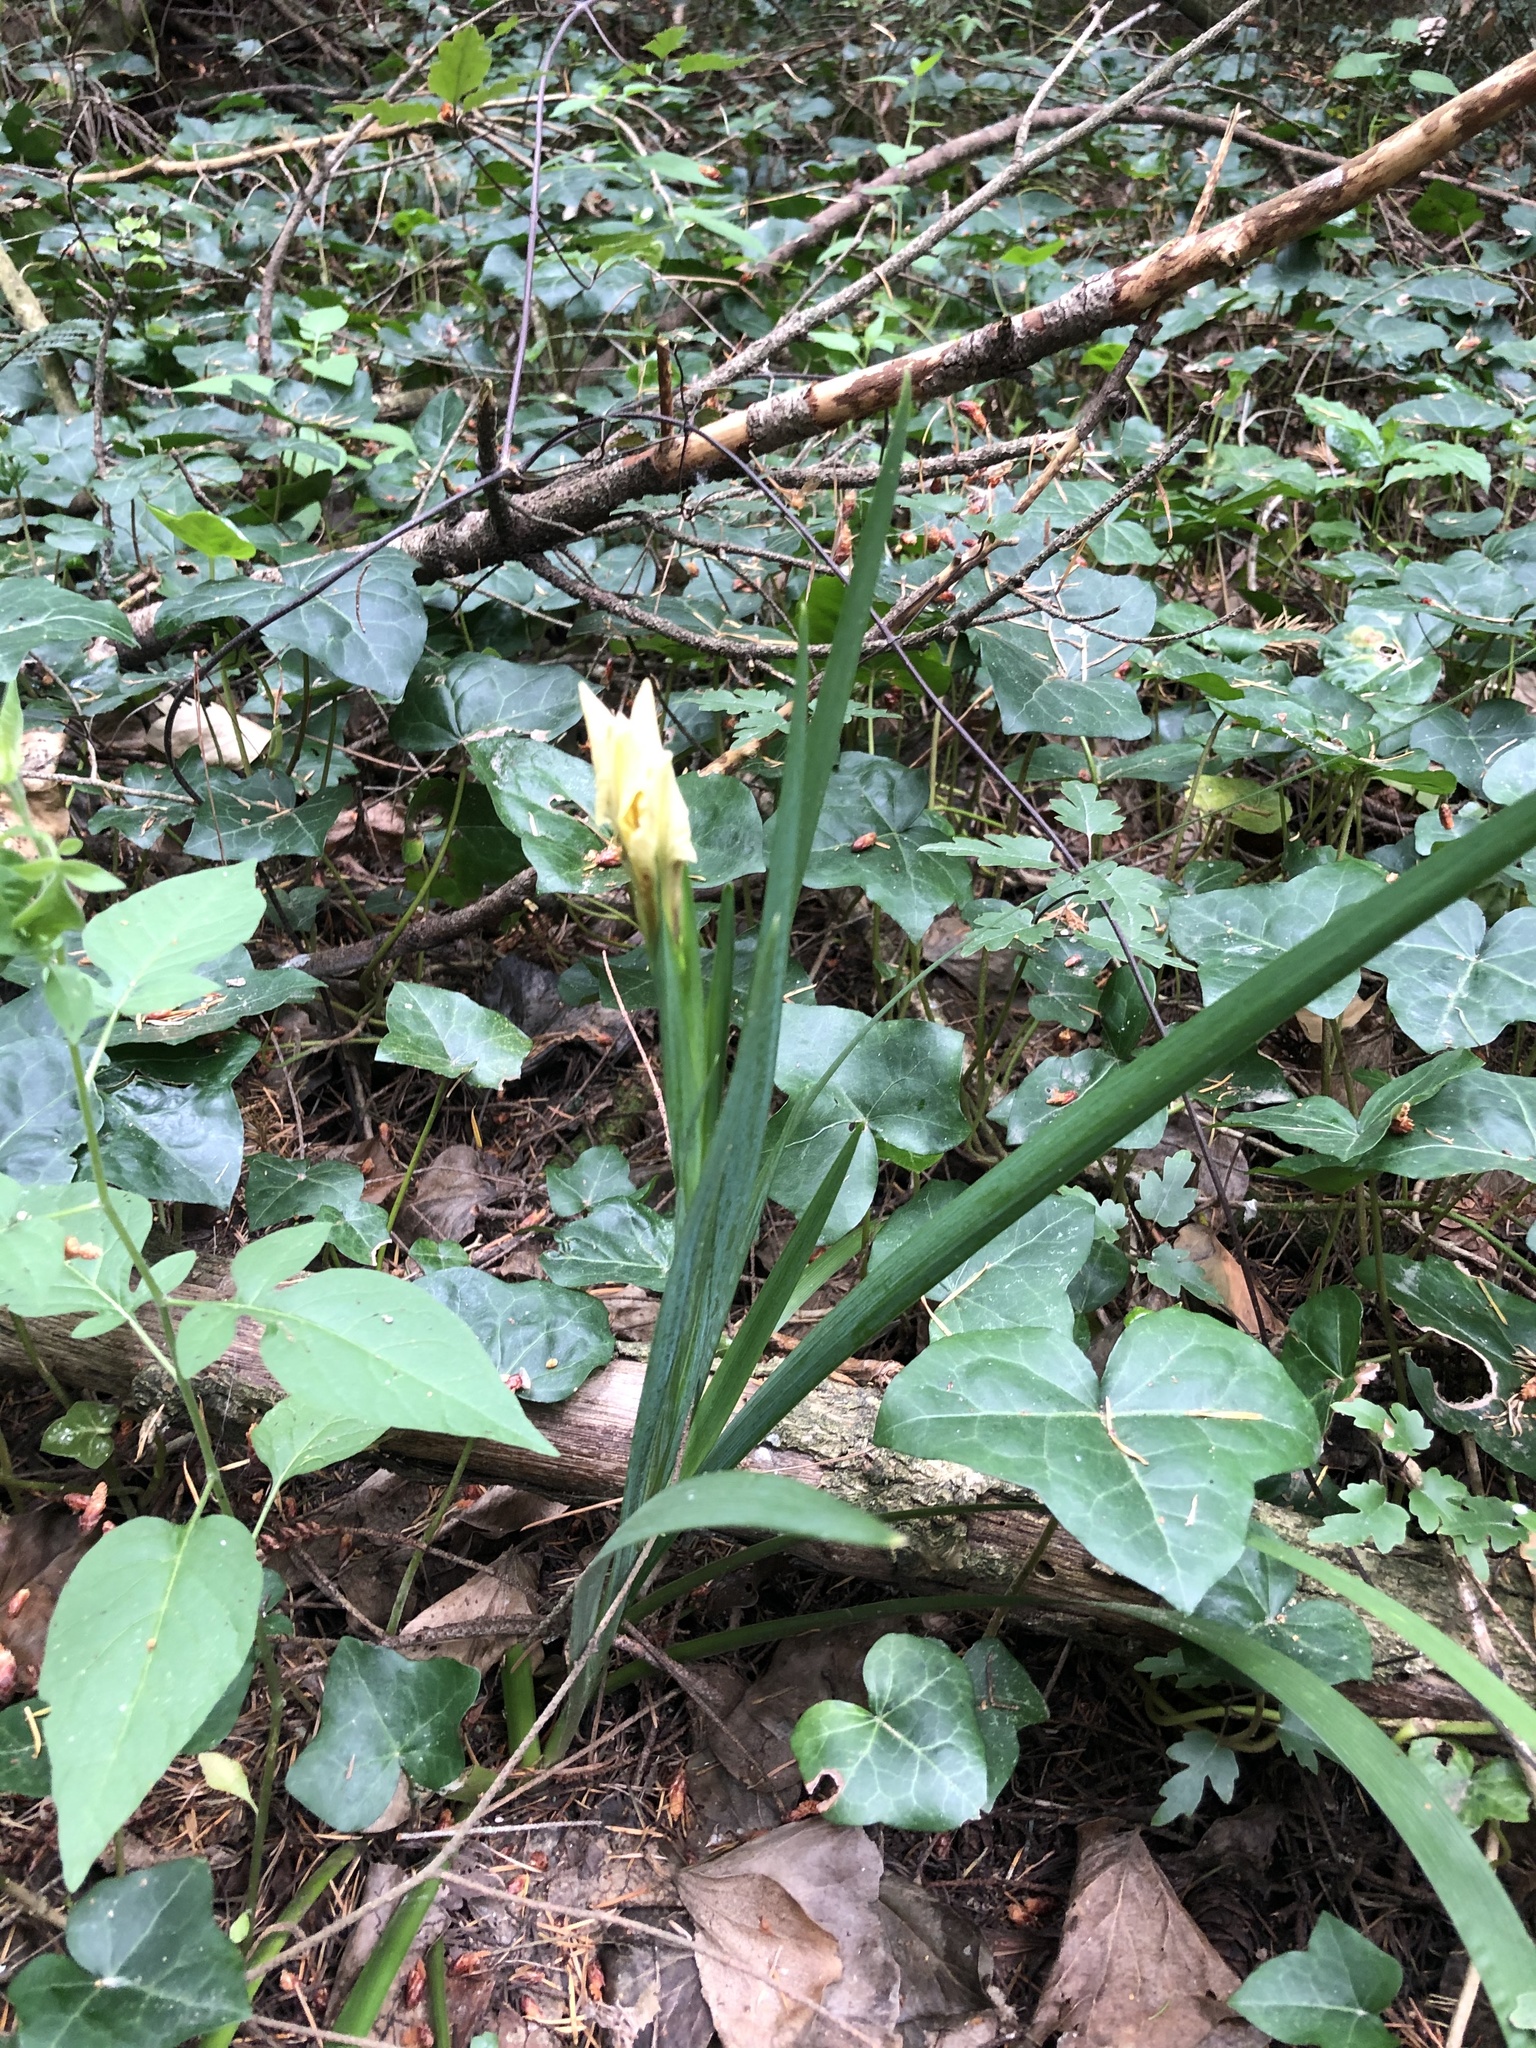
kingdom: Plantae
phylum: Tracheophyta
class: Liliopsida
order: Asparagales
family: Iridaceae
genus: Iris
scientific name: Iris foetidissima
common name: Stinking iris
